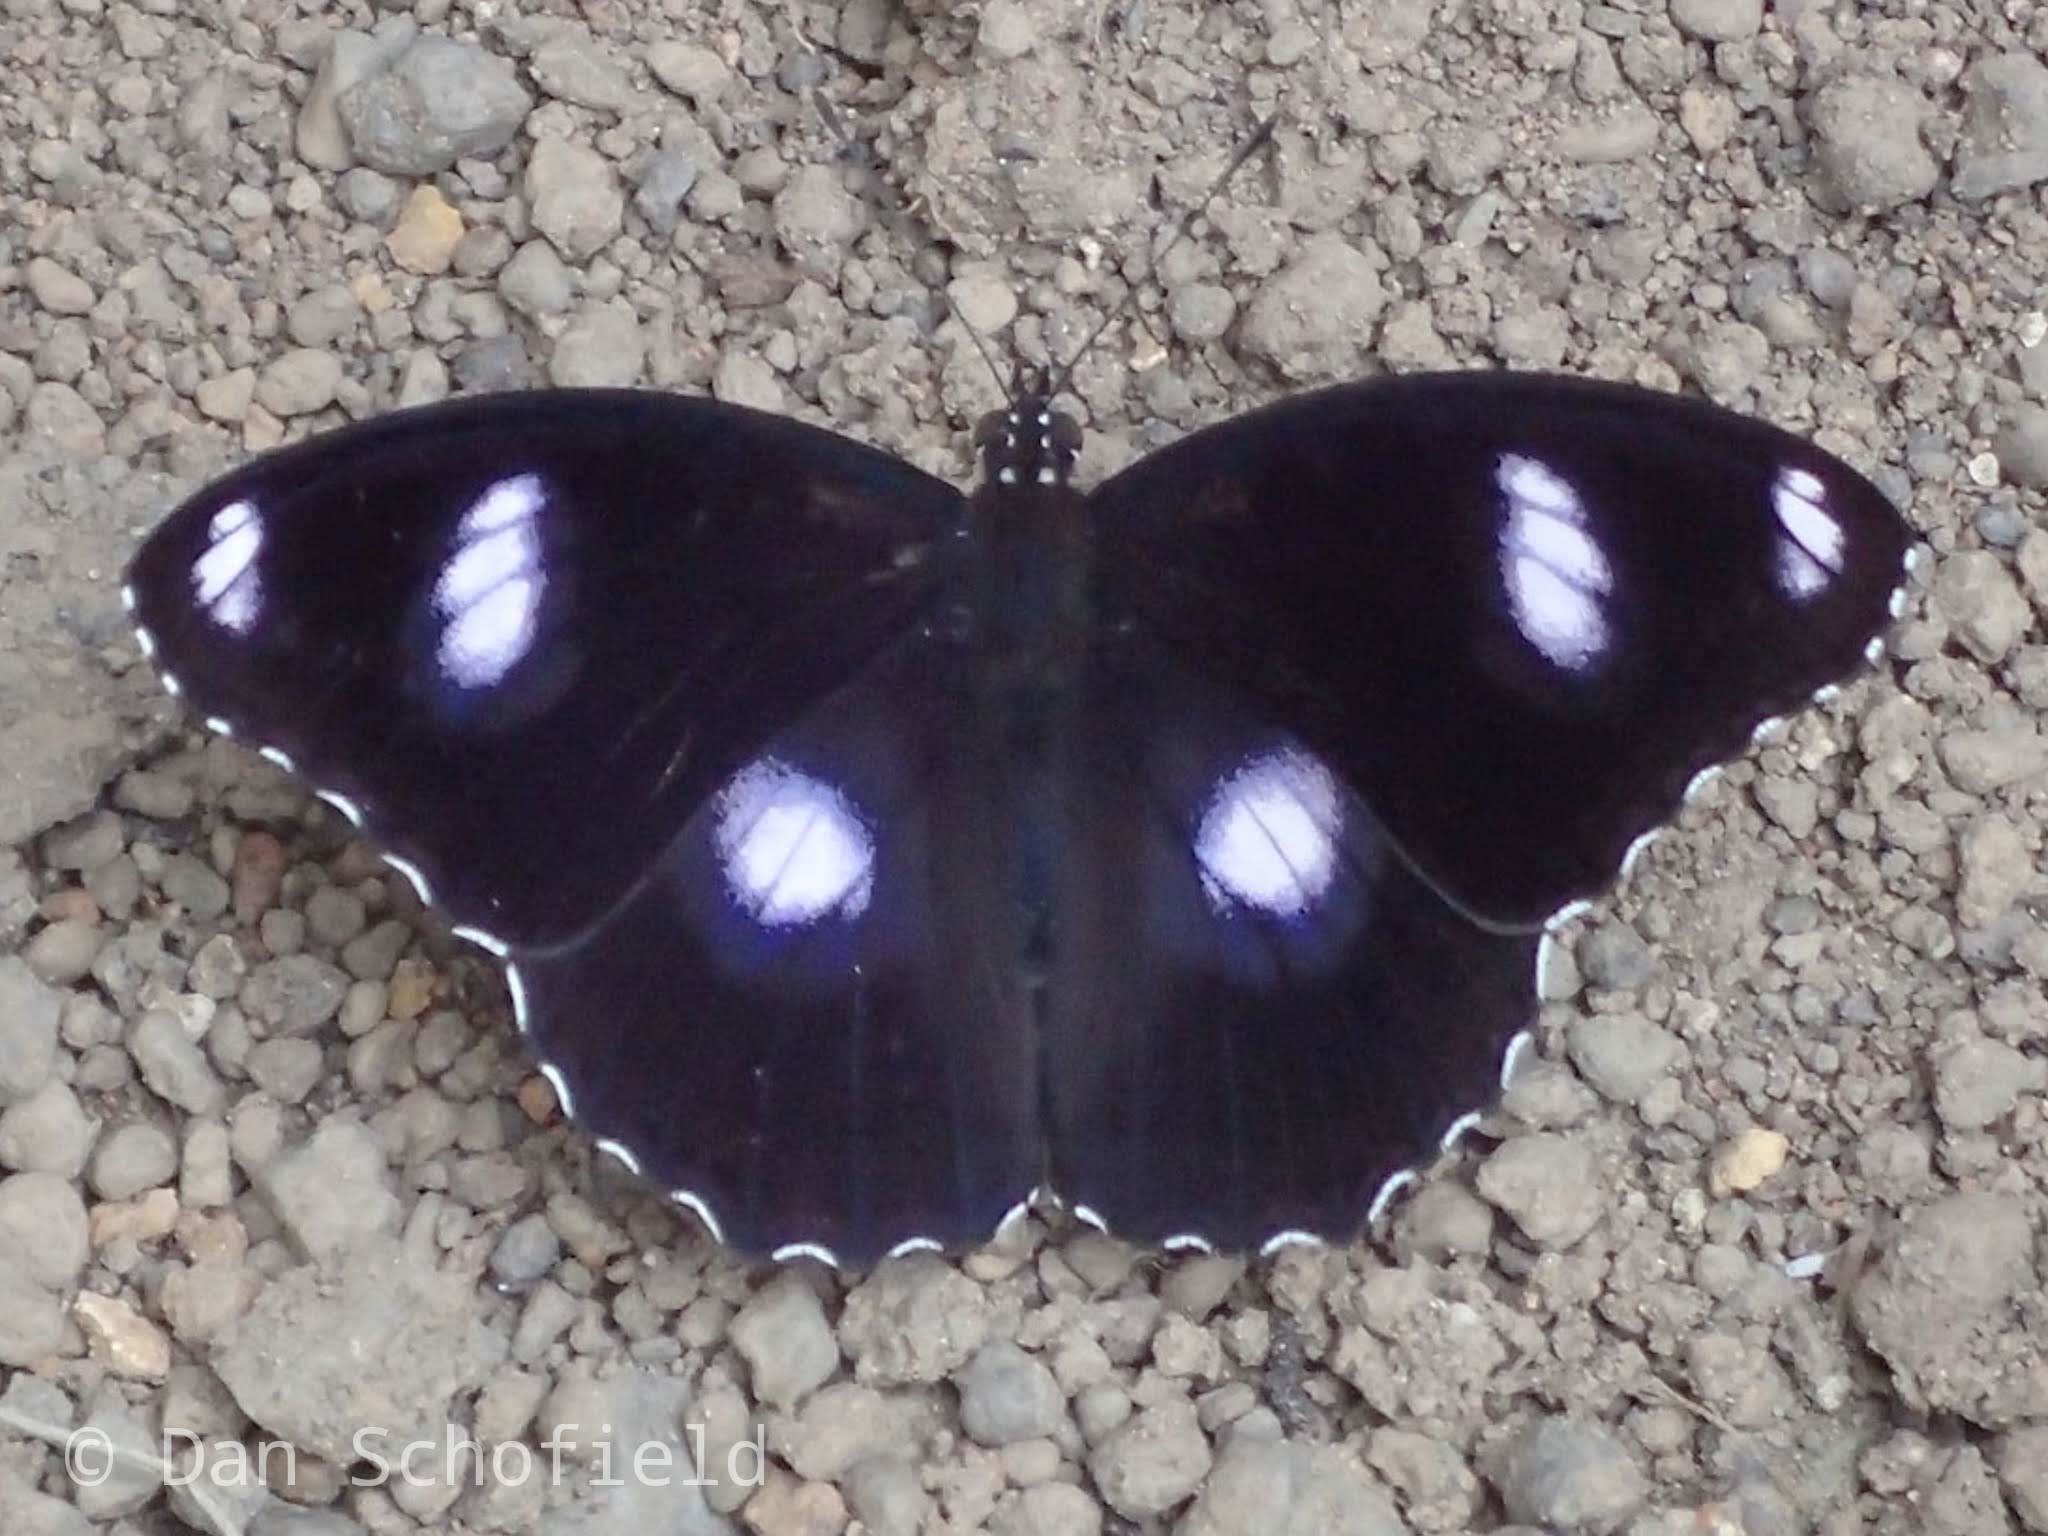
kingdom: Animalia
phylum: Arthropoda
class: Insecta
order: Lepidoptera
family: Nymphalidae
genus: Hypolimnas
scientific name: Hypolimnas bolina
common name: Great eggfly
